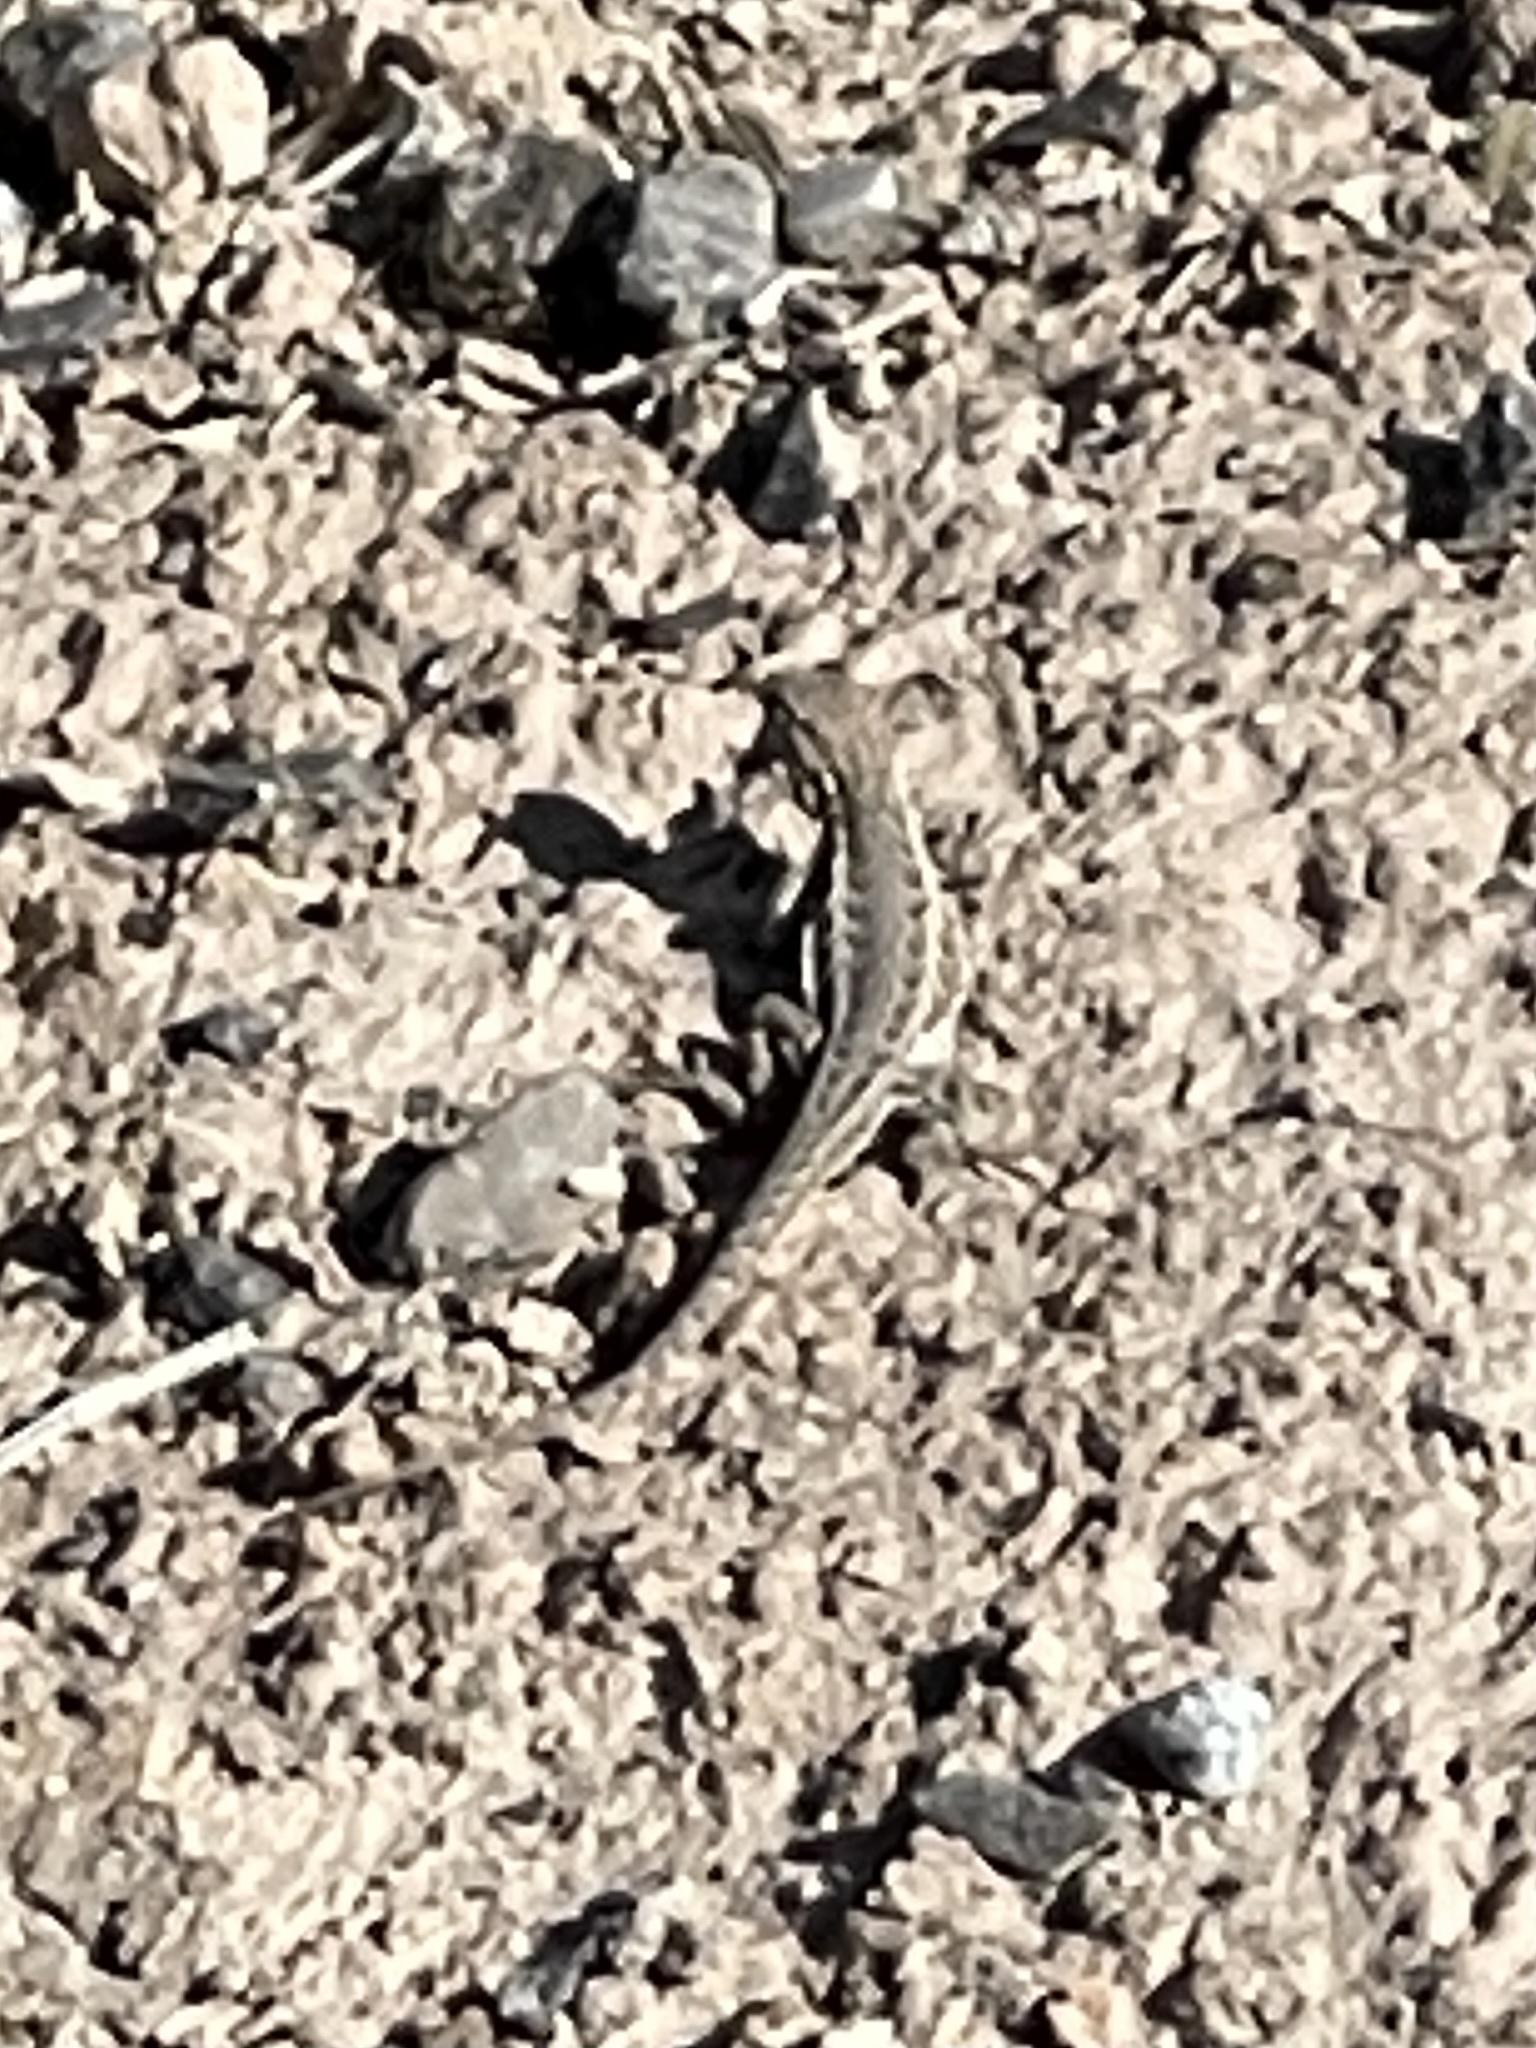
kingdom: Animalia
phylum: Chordata
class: Squamata
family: Phrynosomatidae
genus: Uta
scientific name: Uta stansburiana
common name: Side-blotched lizard
